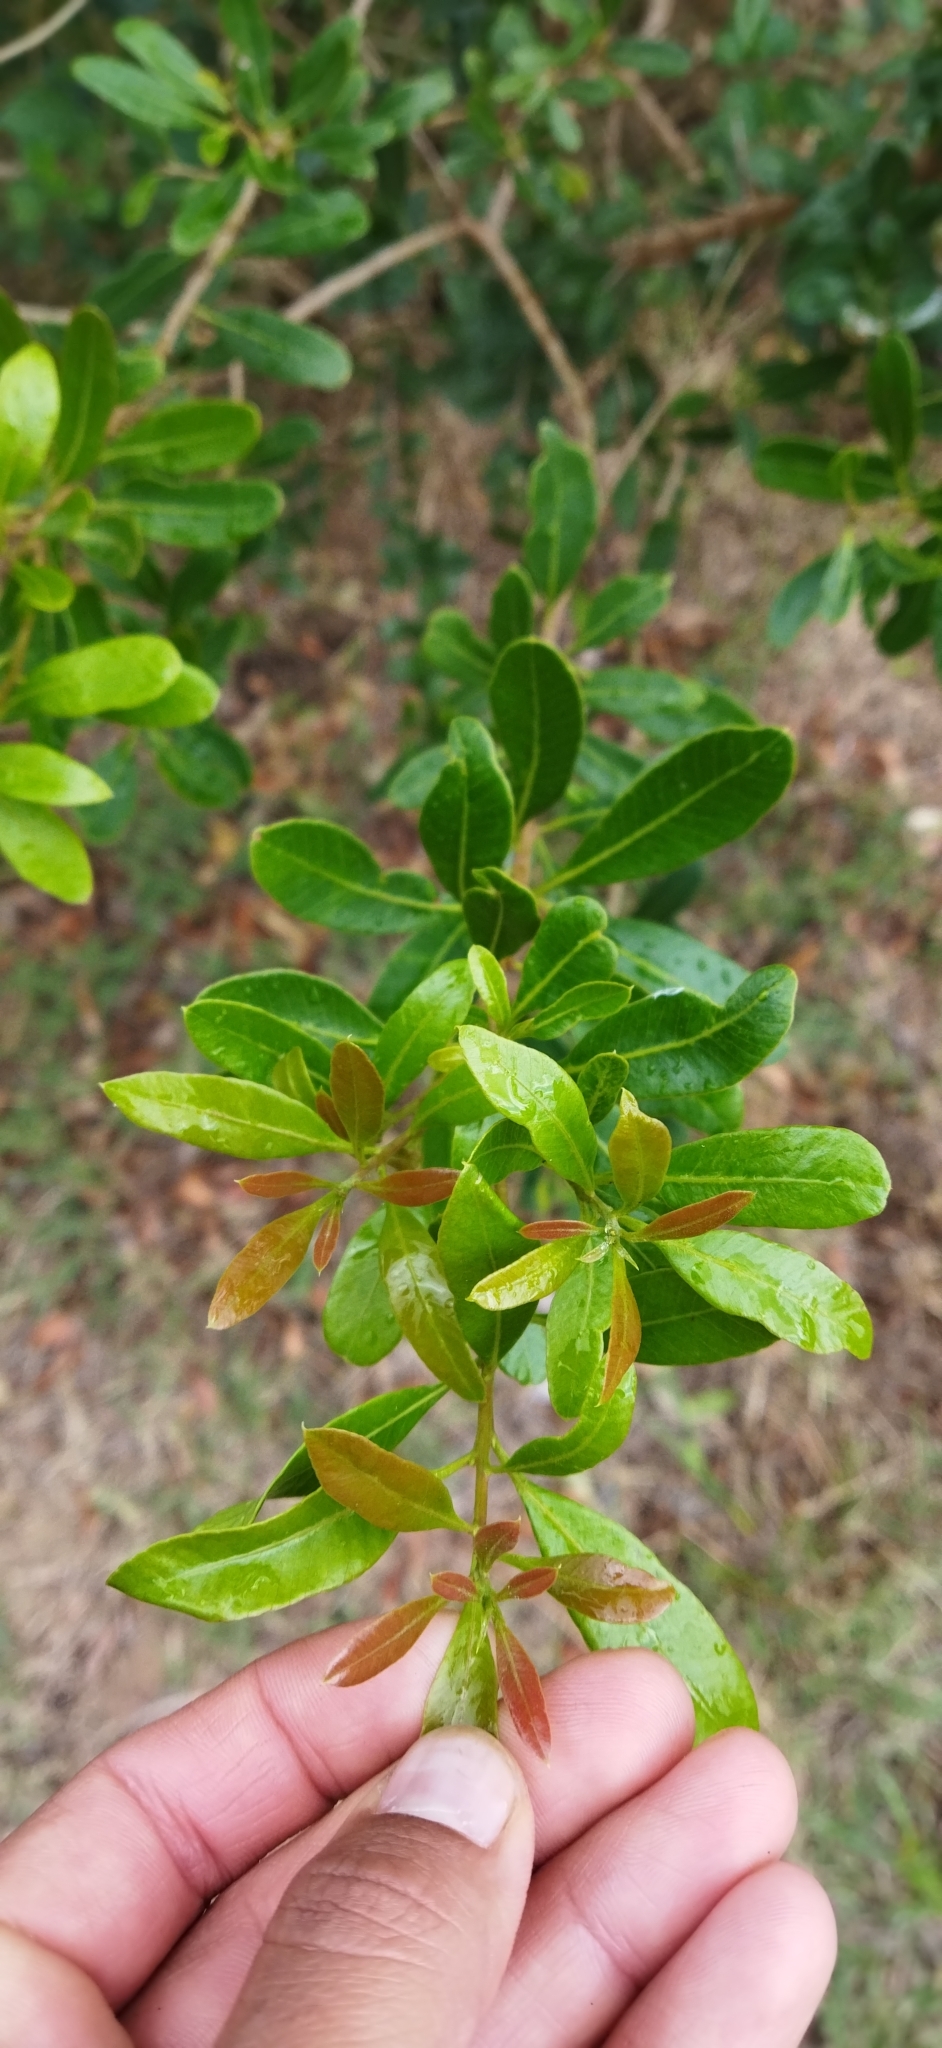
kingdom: Plantae
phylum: Tracheophyta
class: Magnoliopsida
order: Sapindales
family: Anacardiaceae
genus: Lithraea
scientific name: Lithraea brasiliensis
